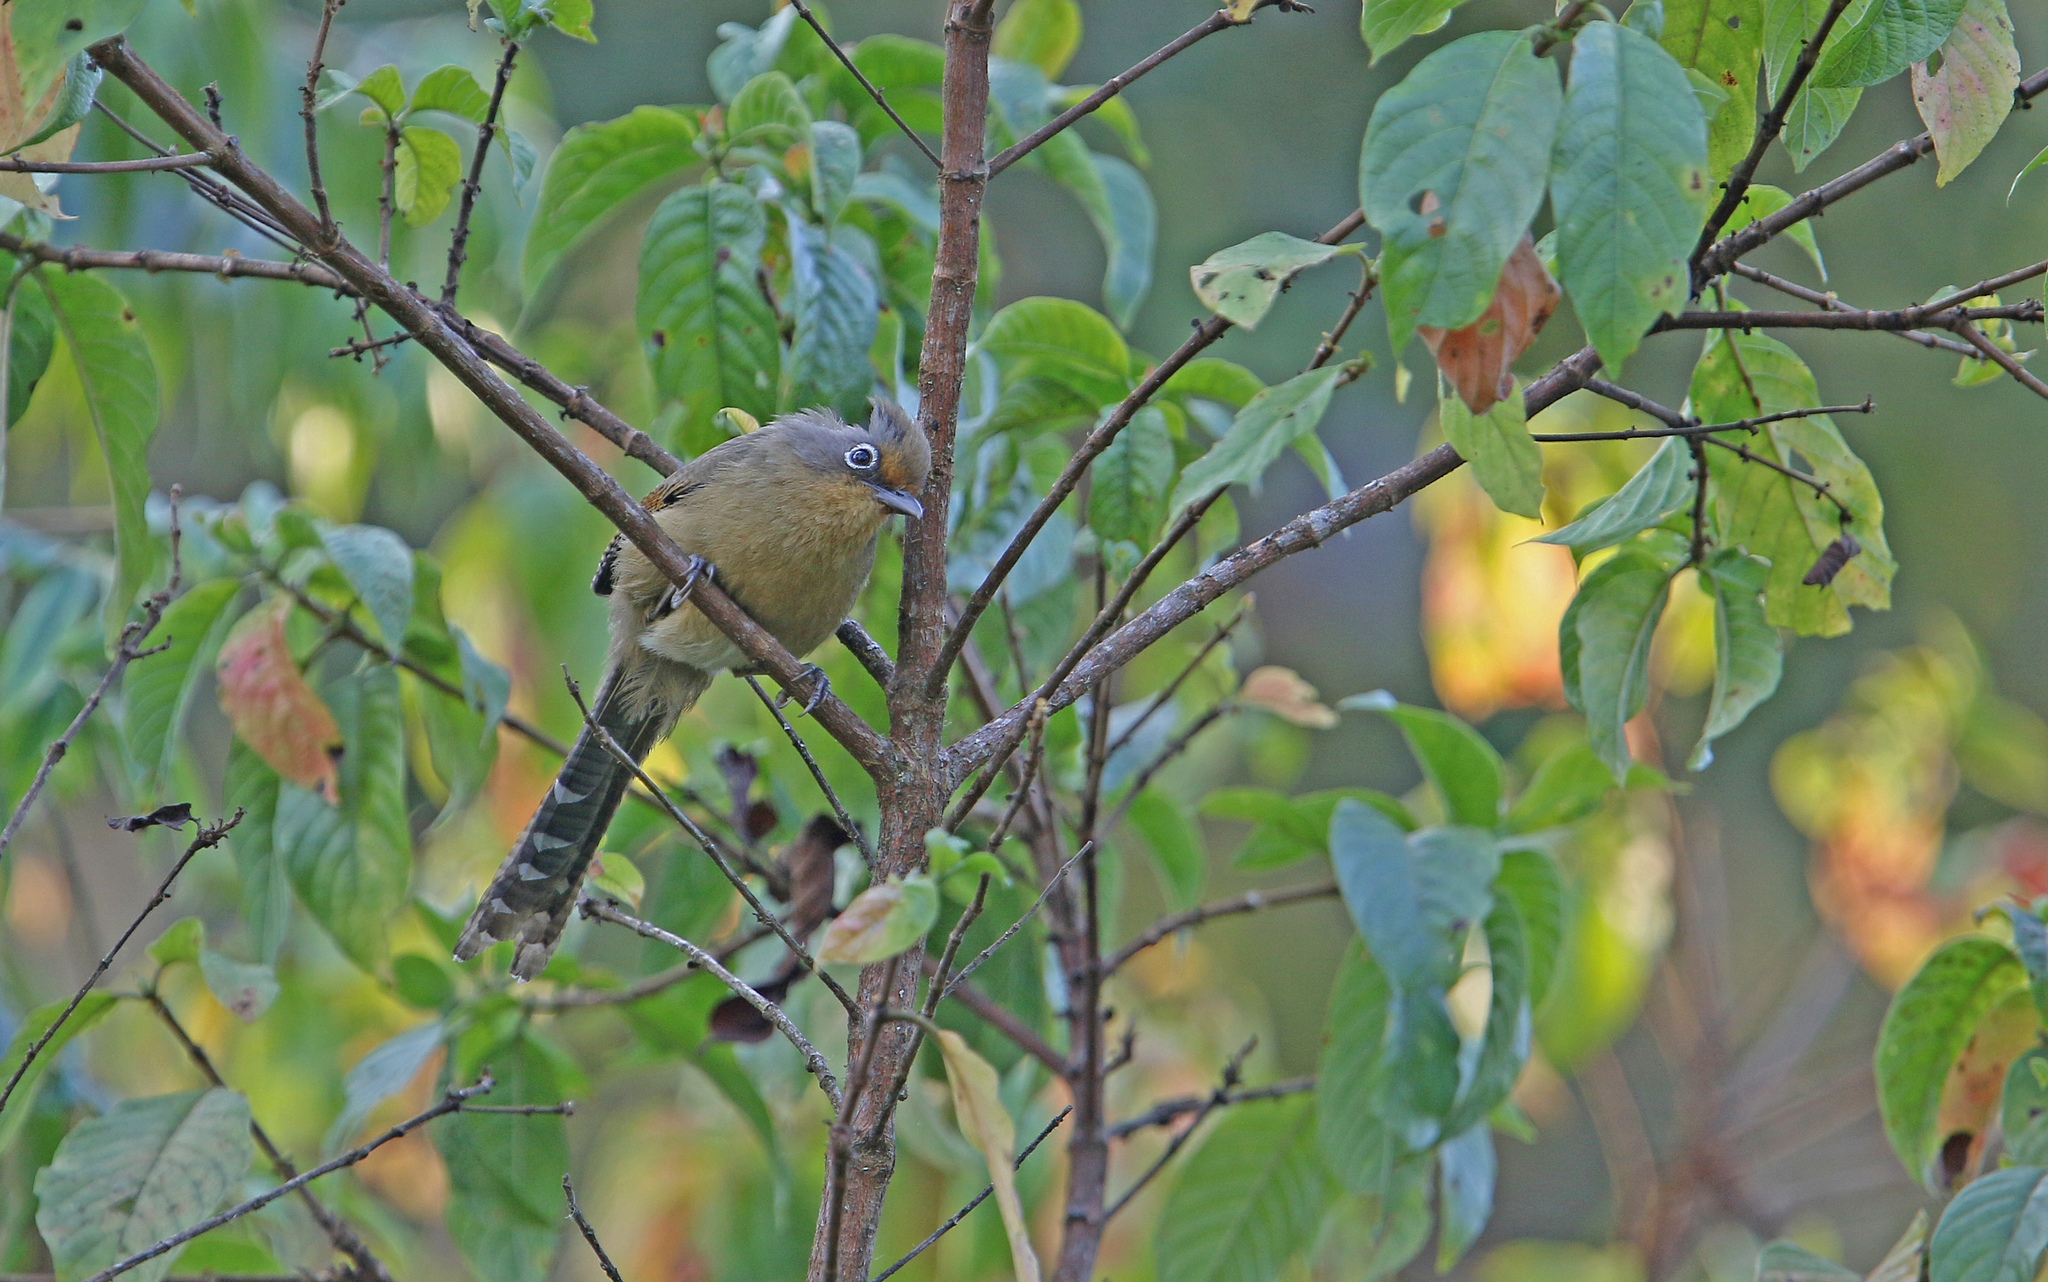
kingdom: Animalia
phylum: Chordata
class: Aves
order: Passeriformes
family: Leiothrichidae
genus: Actinodura
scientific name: Actinodura ramsayi
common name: Spectacled barwing
